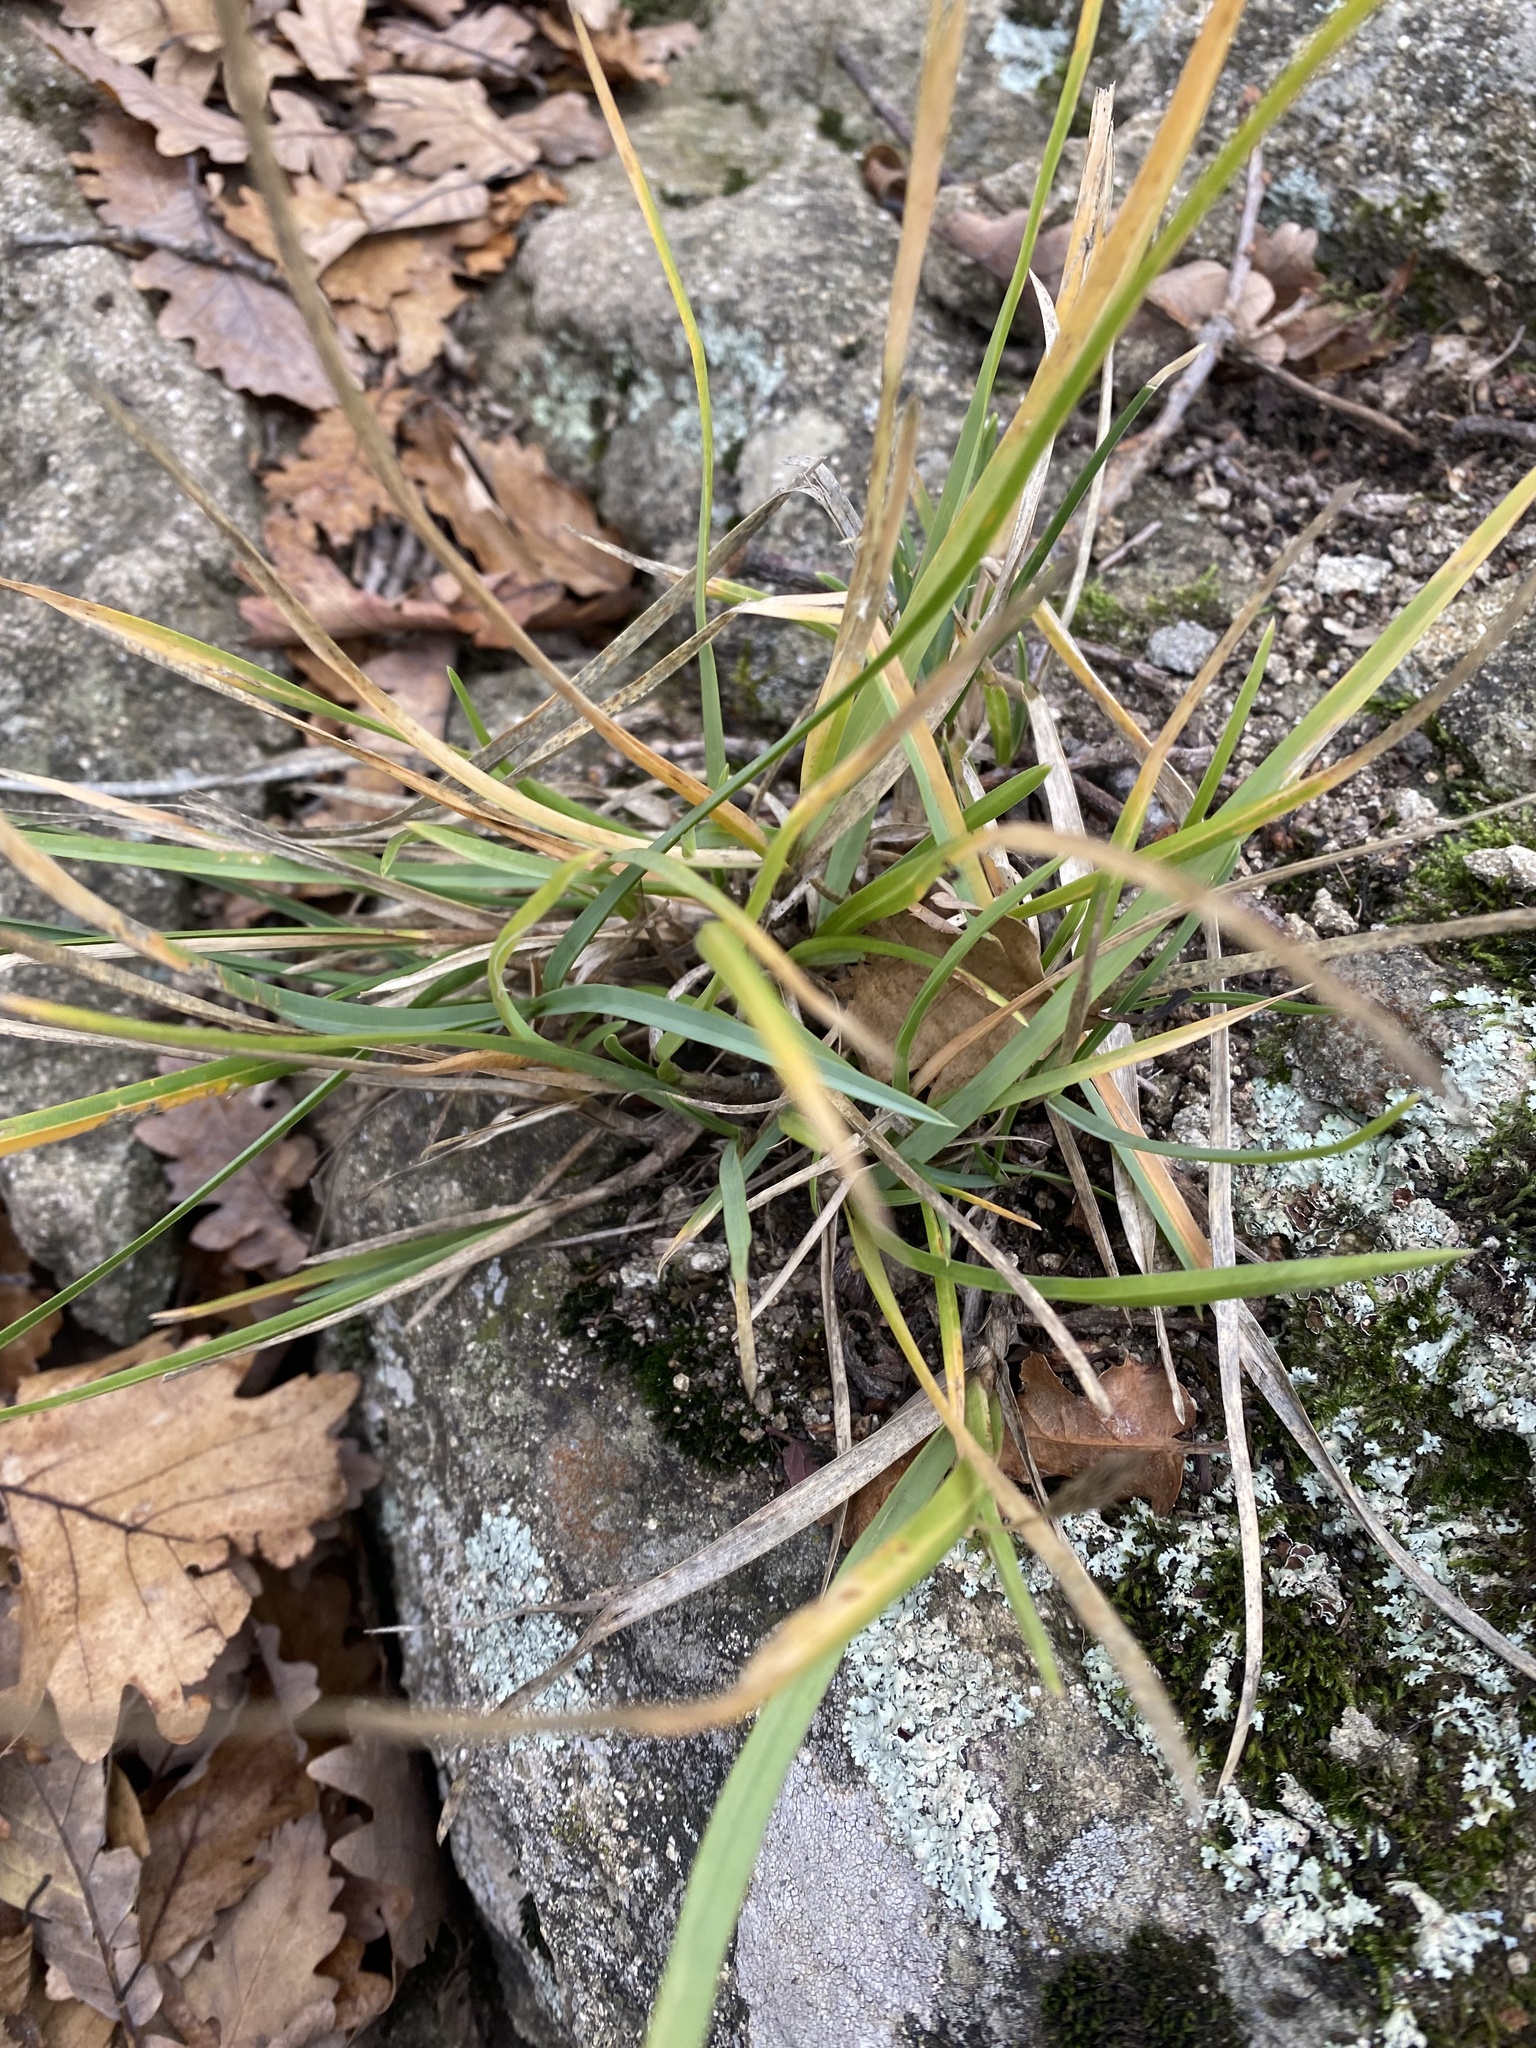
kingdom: Plantae
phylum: Tracheophyta
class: Liliopsida
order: Poales
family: Poaceae
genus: Sesleria
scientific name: Sesleria alba
